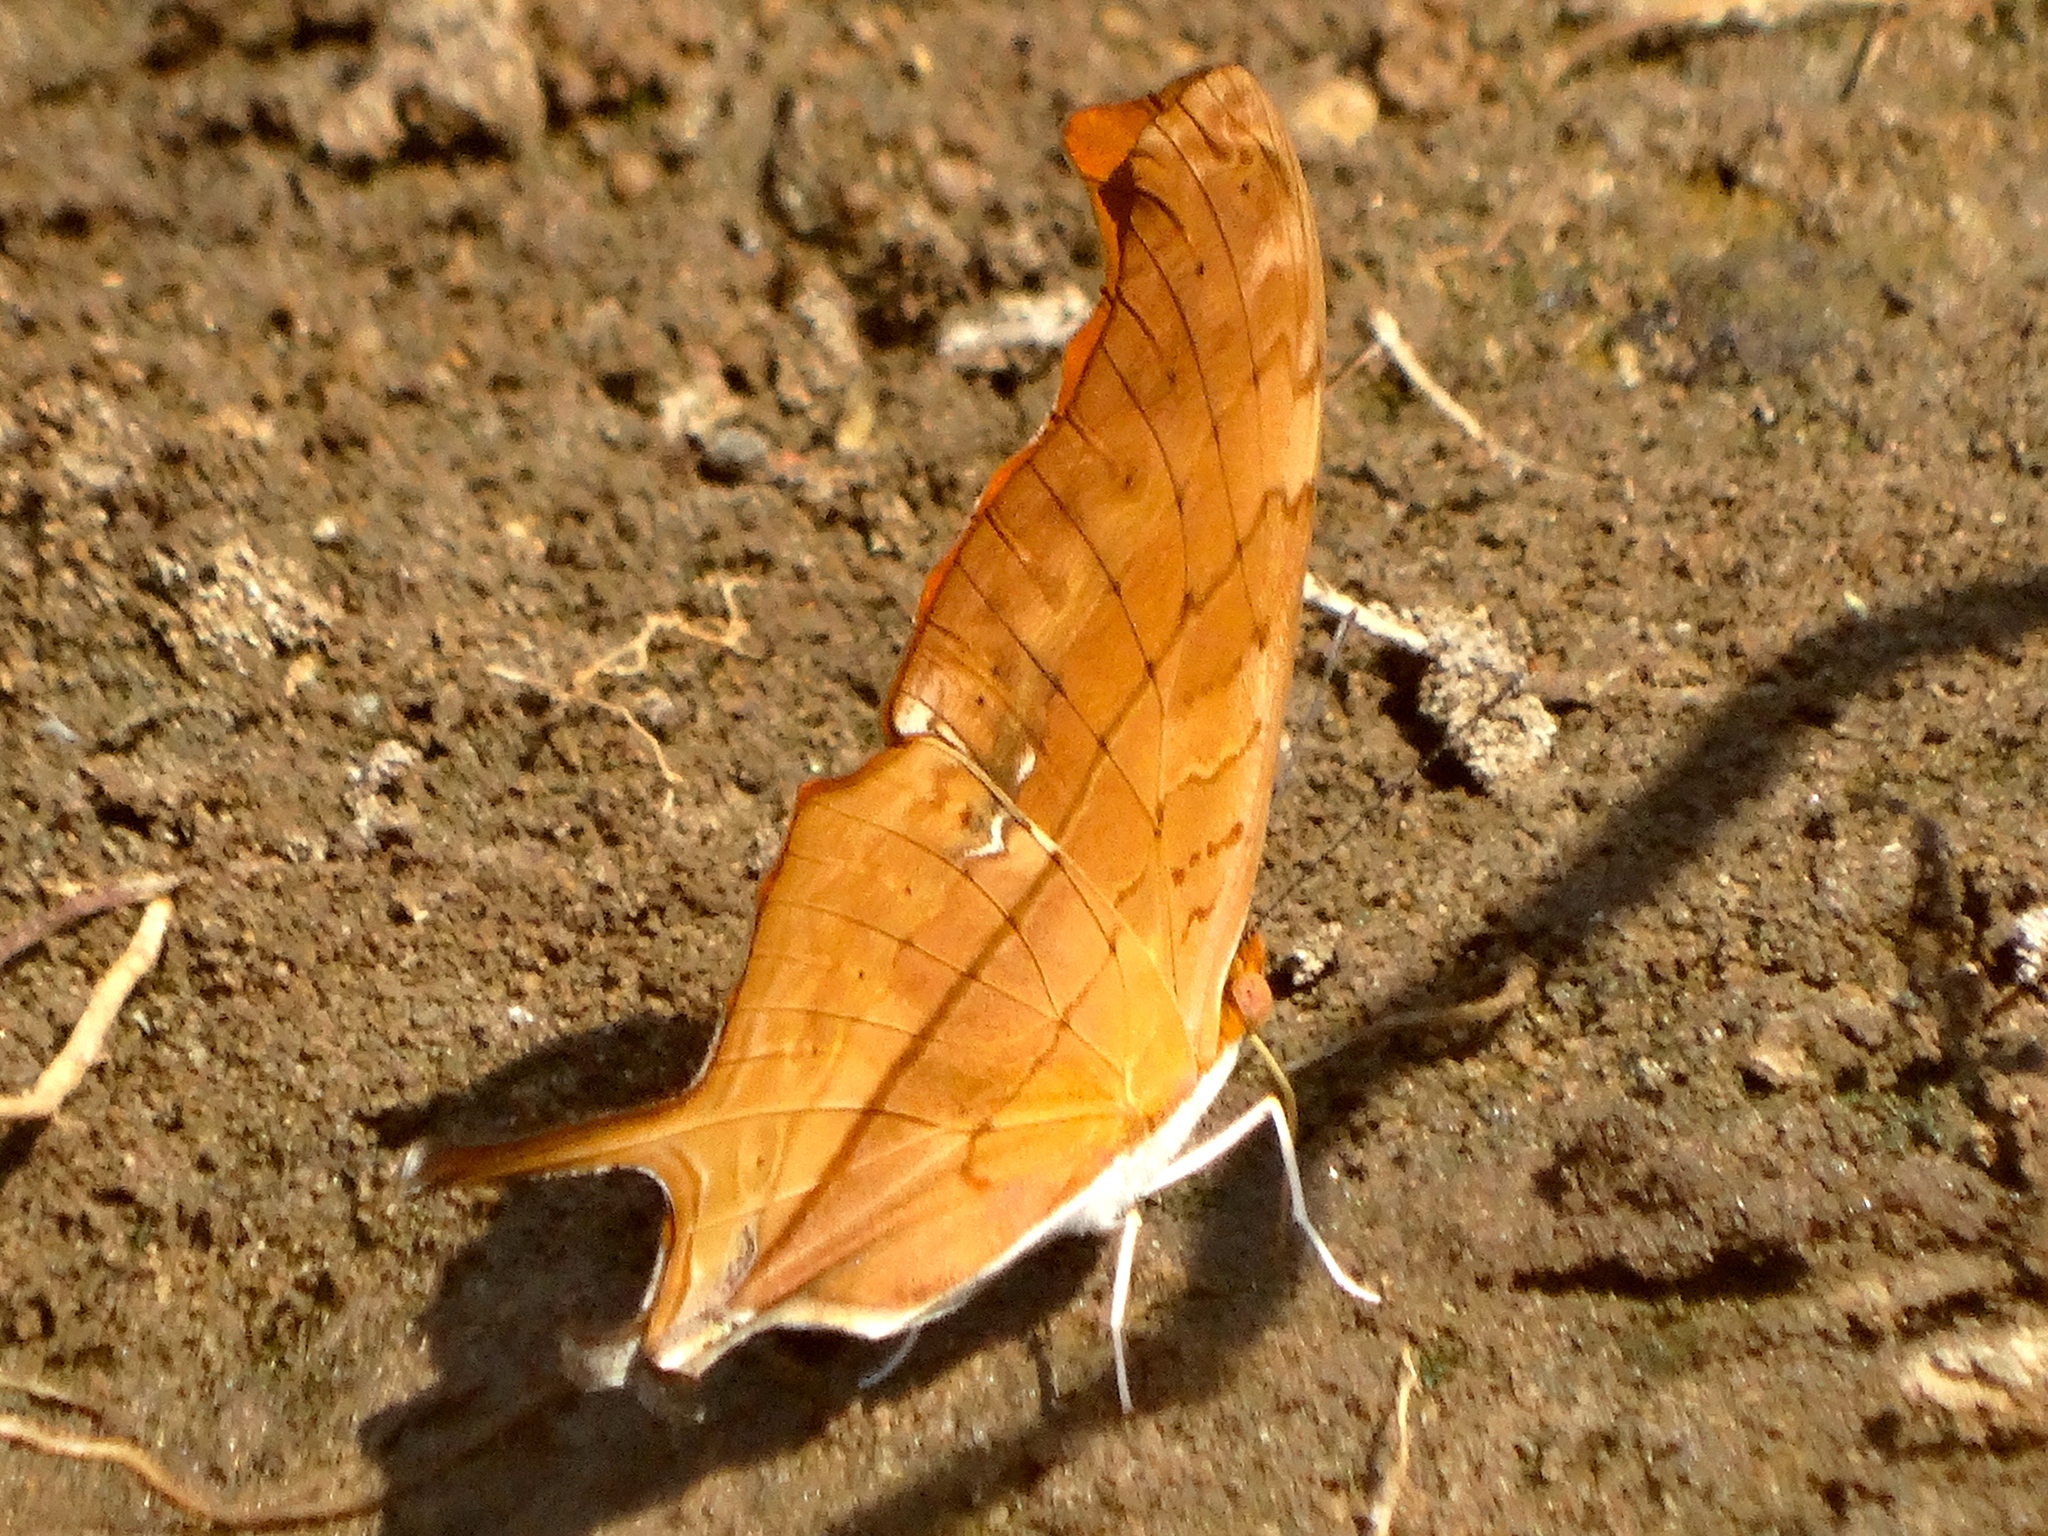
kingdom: Animalia
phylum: Arthropoda
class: Insecta
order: Lepidoptera
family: Nymphalidae
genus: Marpesia
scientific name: Marpesia petreus
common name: Red dagger wing
